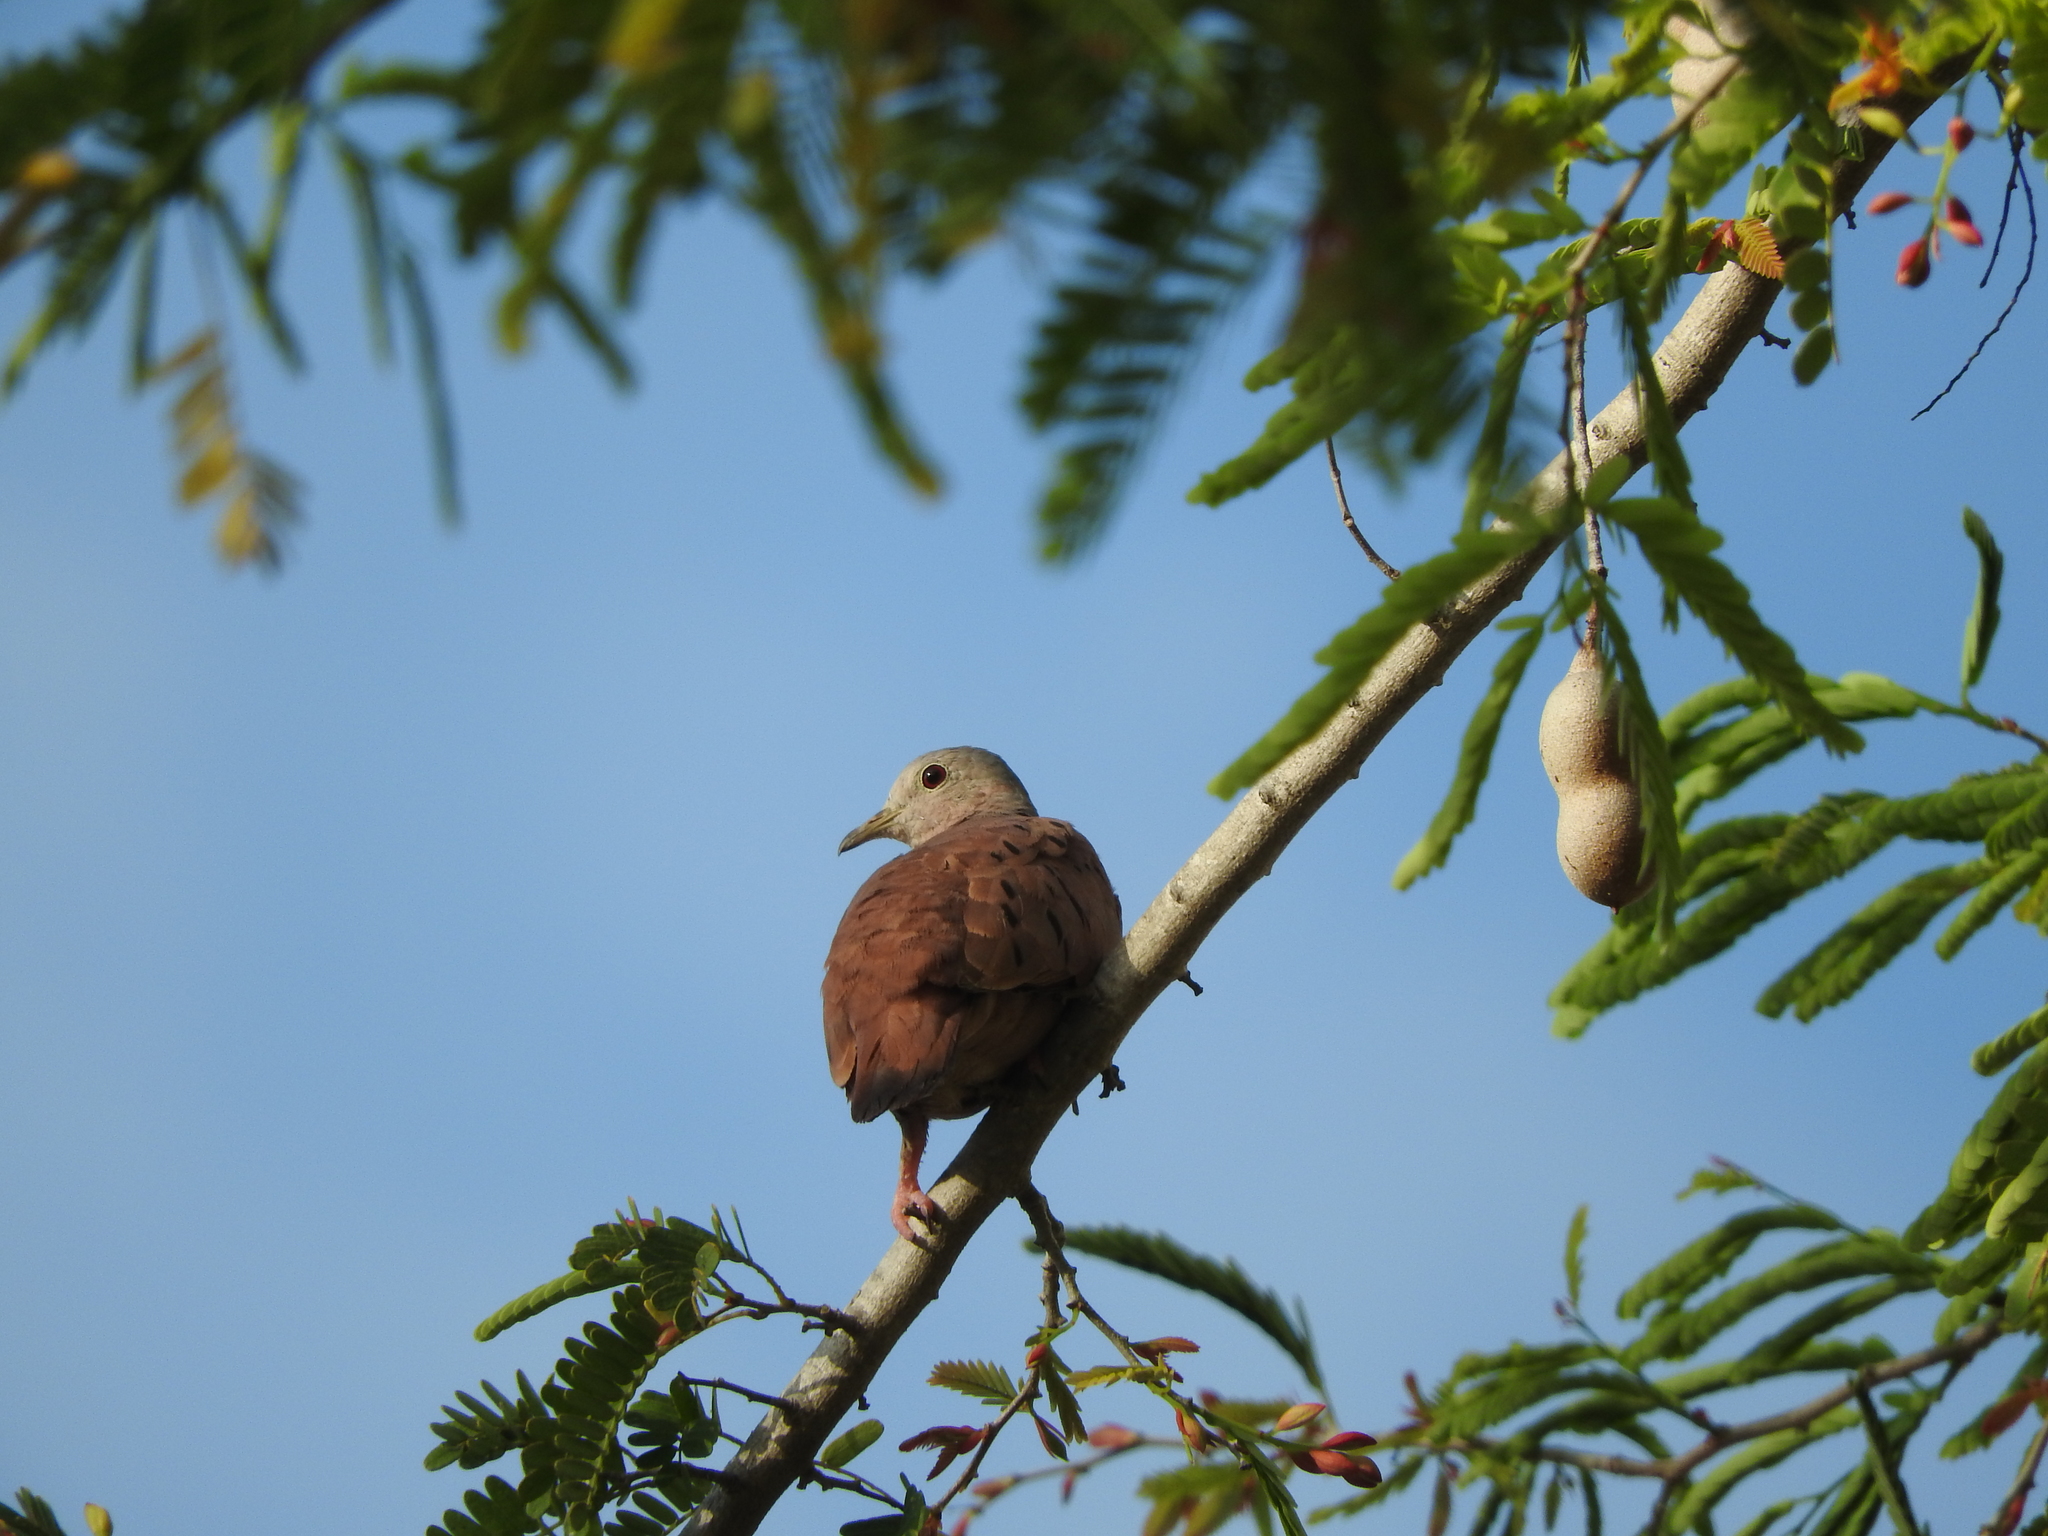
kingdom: Animalia
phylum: Chordata
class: Aves
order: Columbiformes
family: Columbidae
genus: Columbina
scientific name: Columbina talpacoti
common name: Ruddy ground dove
